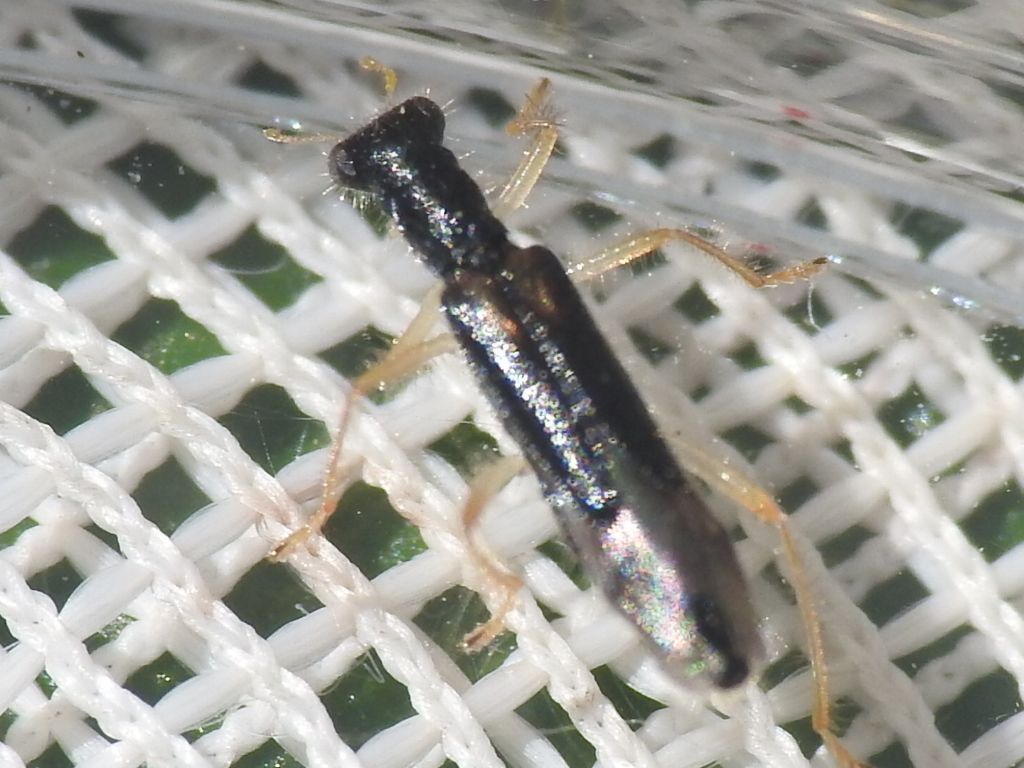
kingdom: Animalia
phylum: Arthropoda
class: Insecta
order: Coleoptera
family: Cleridae
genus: Isohydnocera
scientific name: Isohydnocera curtipennis
